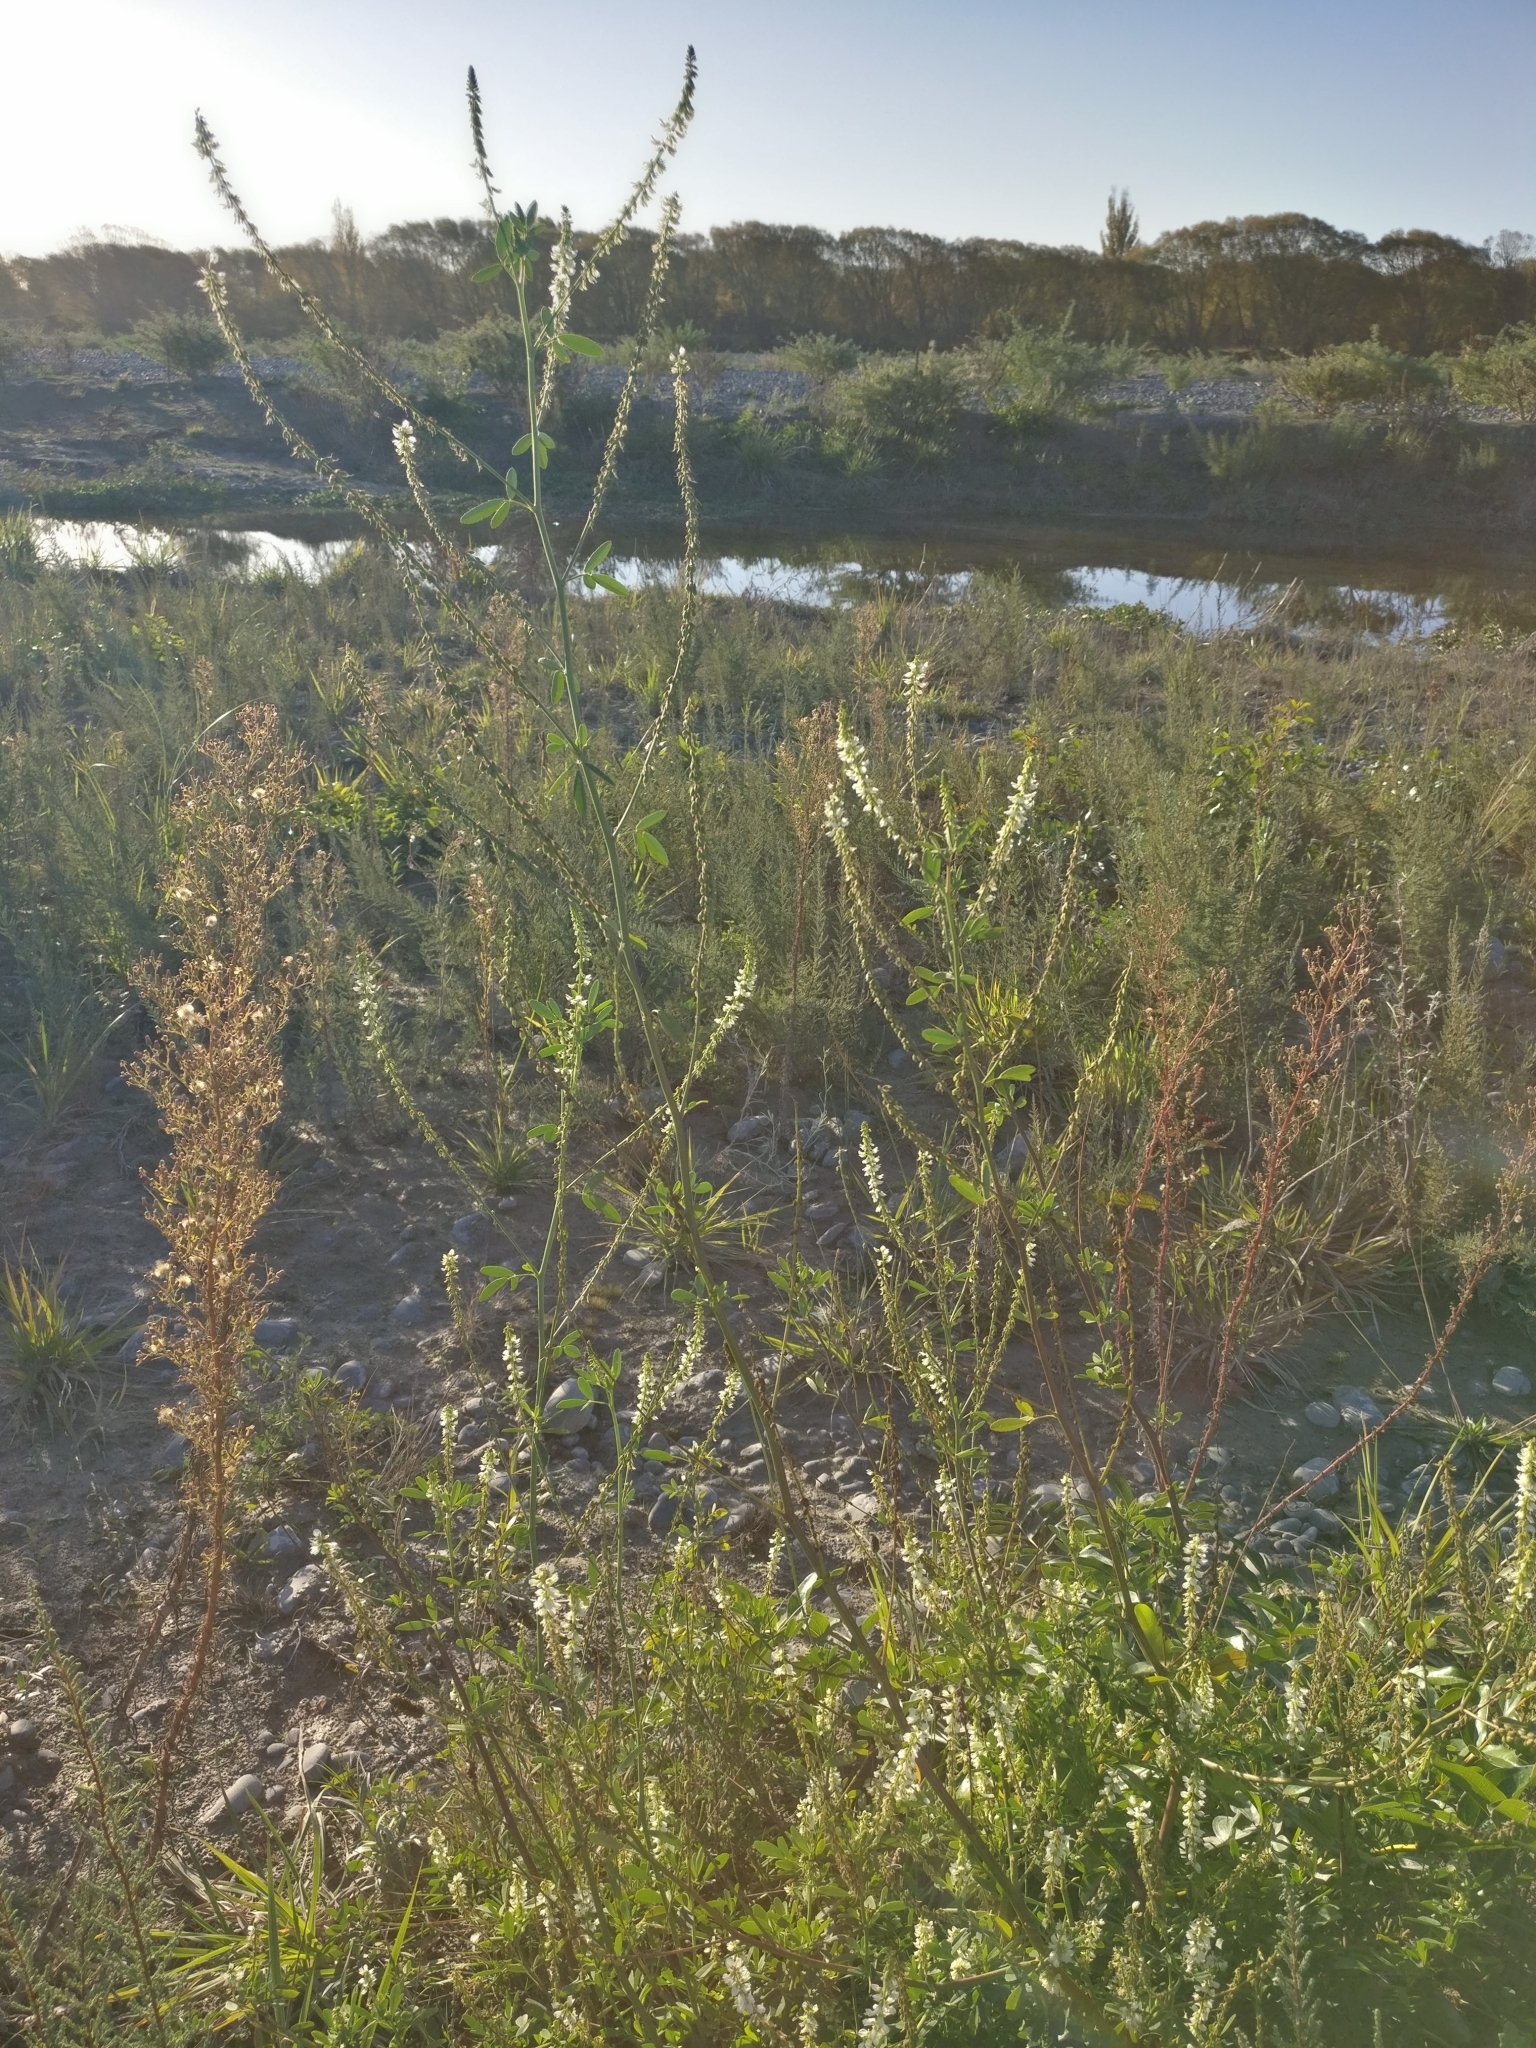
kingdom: Plantae
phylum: Tracheophyta
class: Magnoliopsida
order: Fabales
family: Fabaceae
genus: Melilotus
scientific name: Melilotus albus
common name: White melilot
